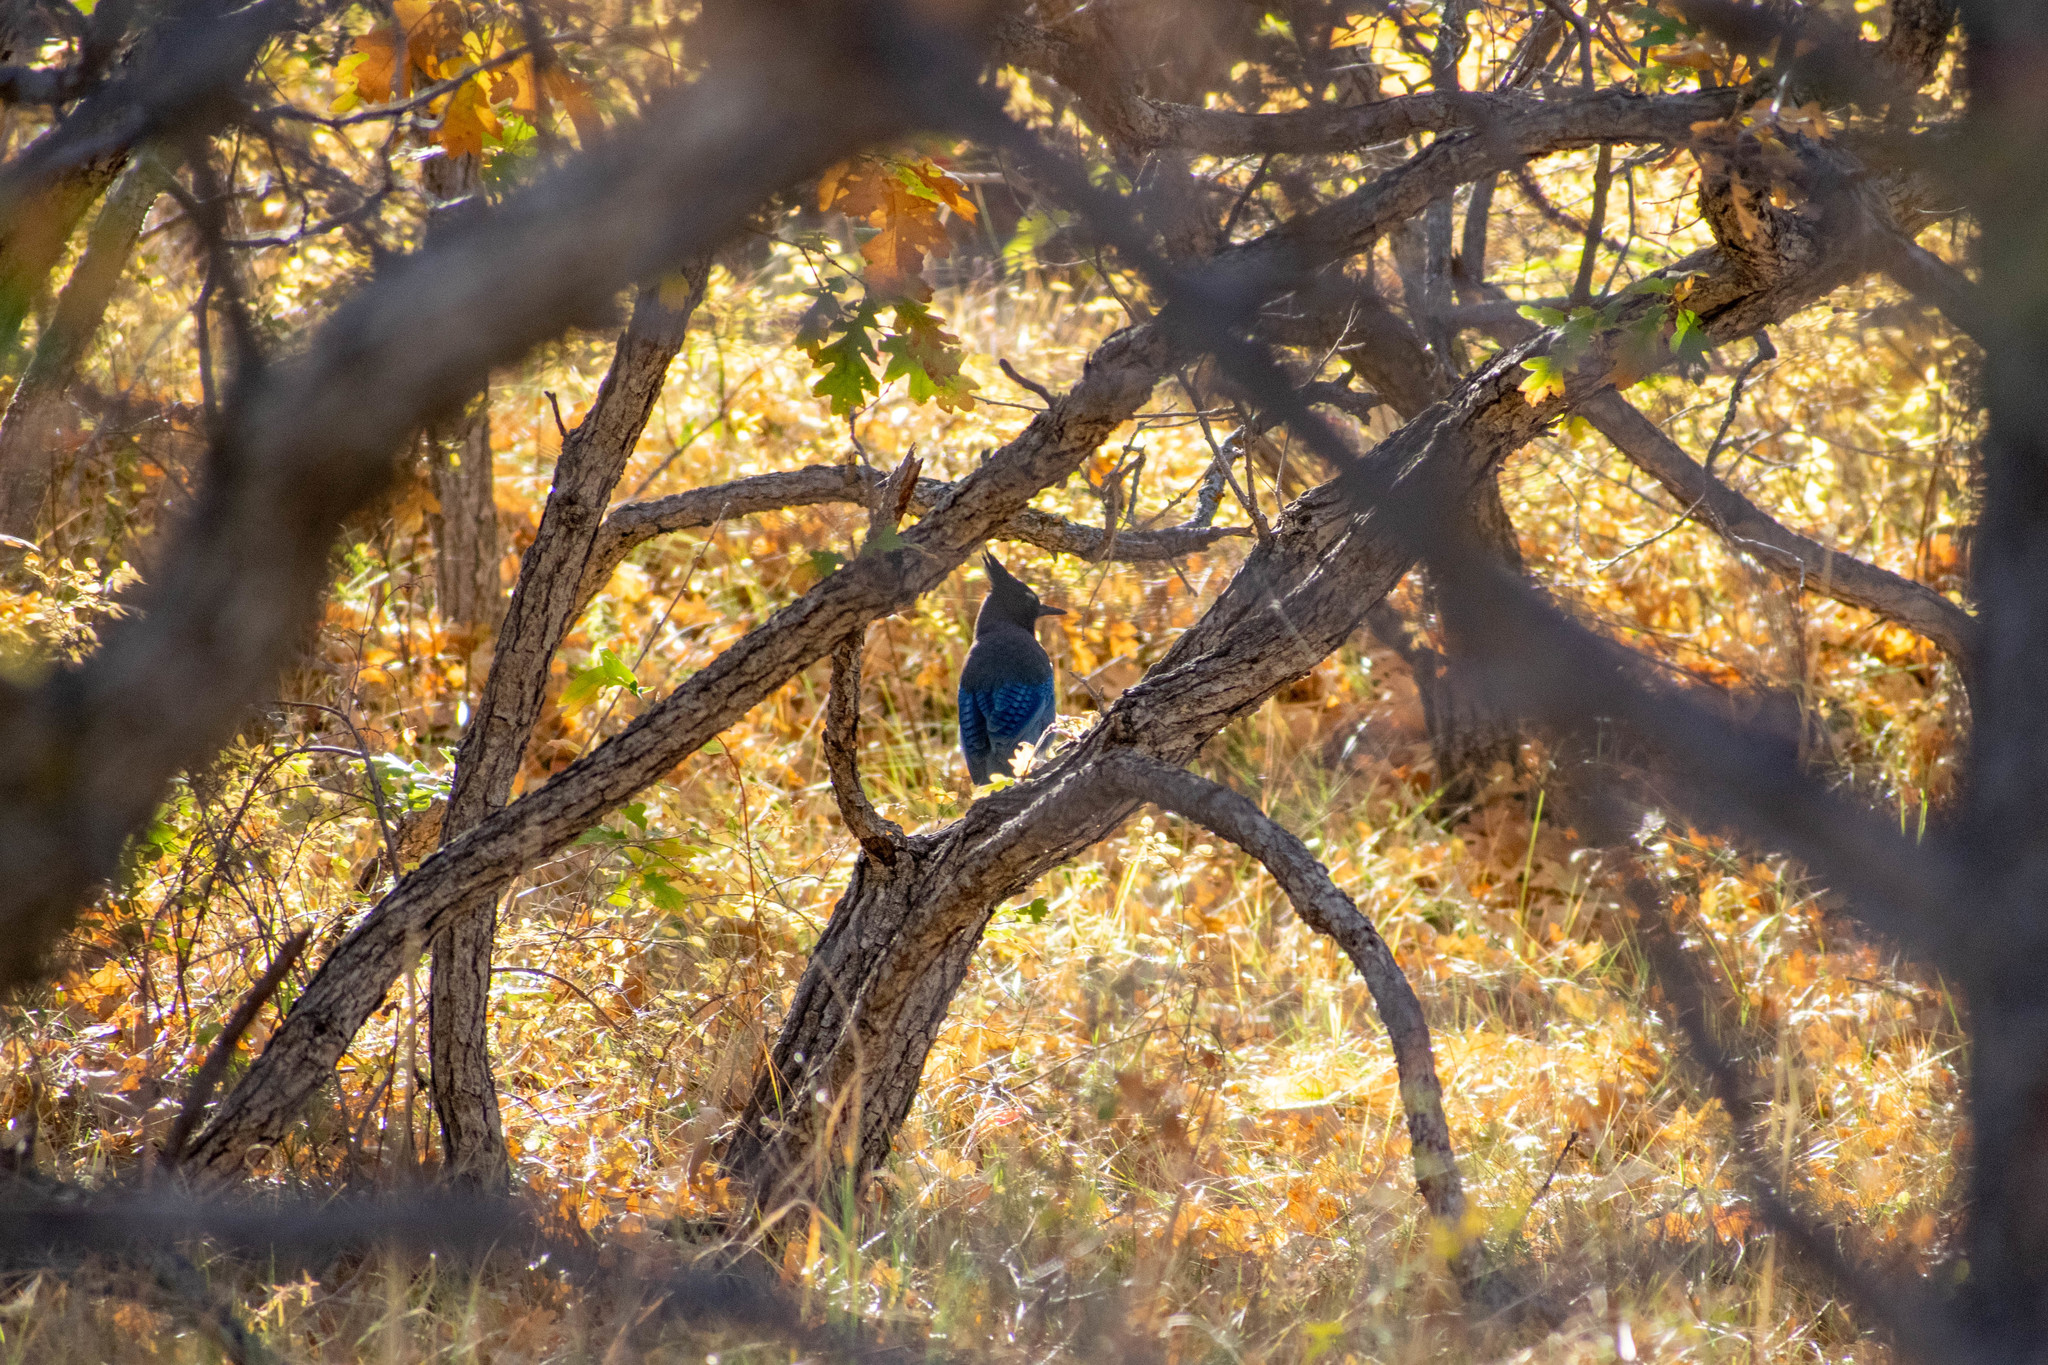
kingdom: Animalia
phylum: Chordata
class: Aves
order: Passeriformes
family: Corvidae
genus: Cyanocitta
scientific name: Cyanocitta stelleri
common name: Steller's jay
